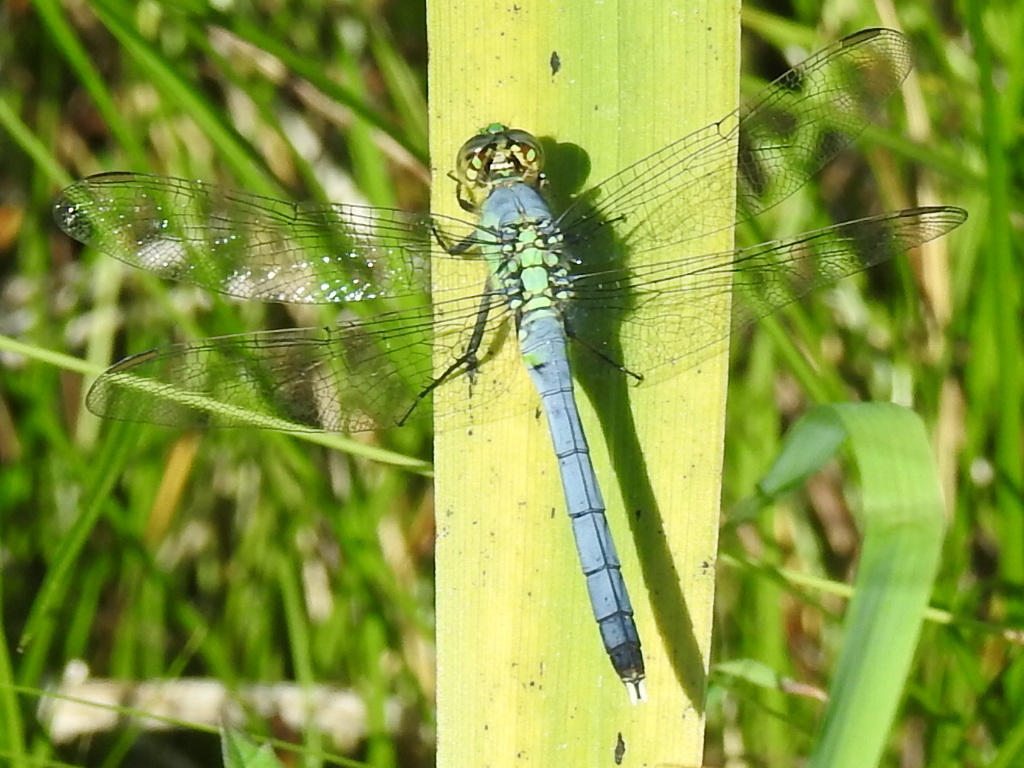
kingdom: Animalia
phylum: Arthropoda
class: Insecta
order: Odonata
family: Libellulidae
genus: Erythemis
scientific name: Erythemis simplicicollis
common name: Eastern pondhawk
